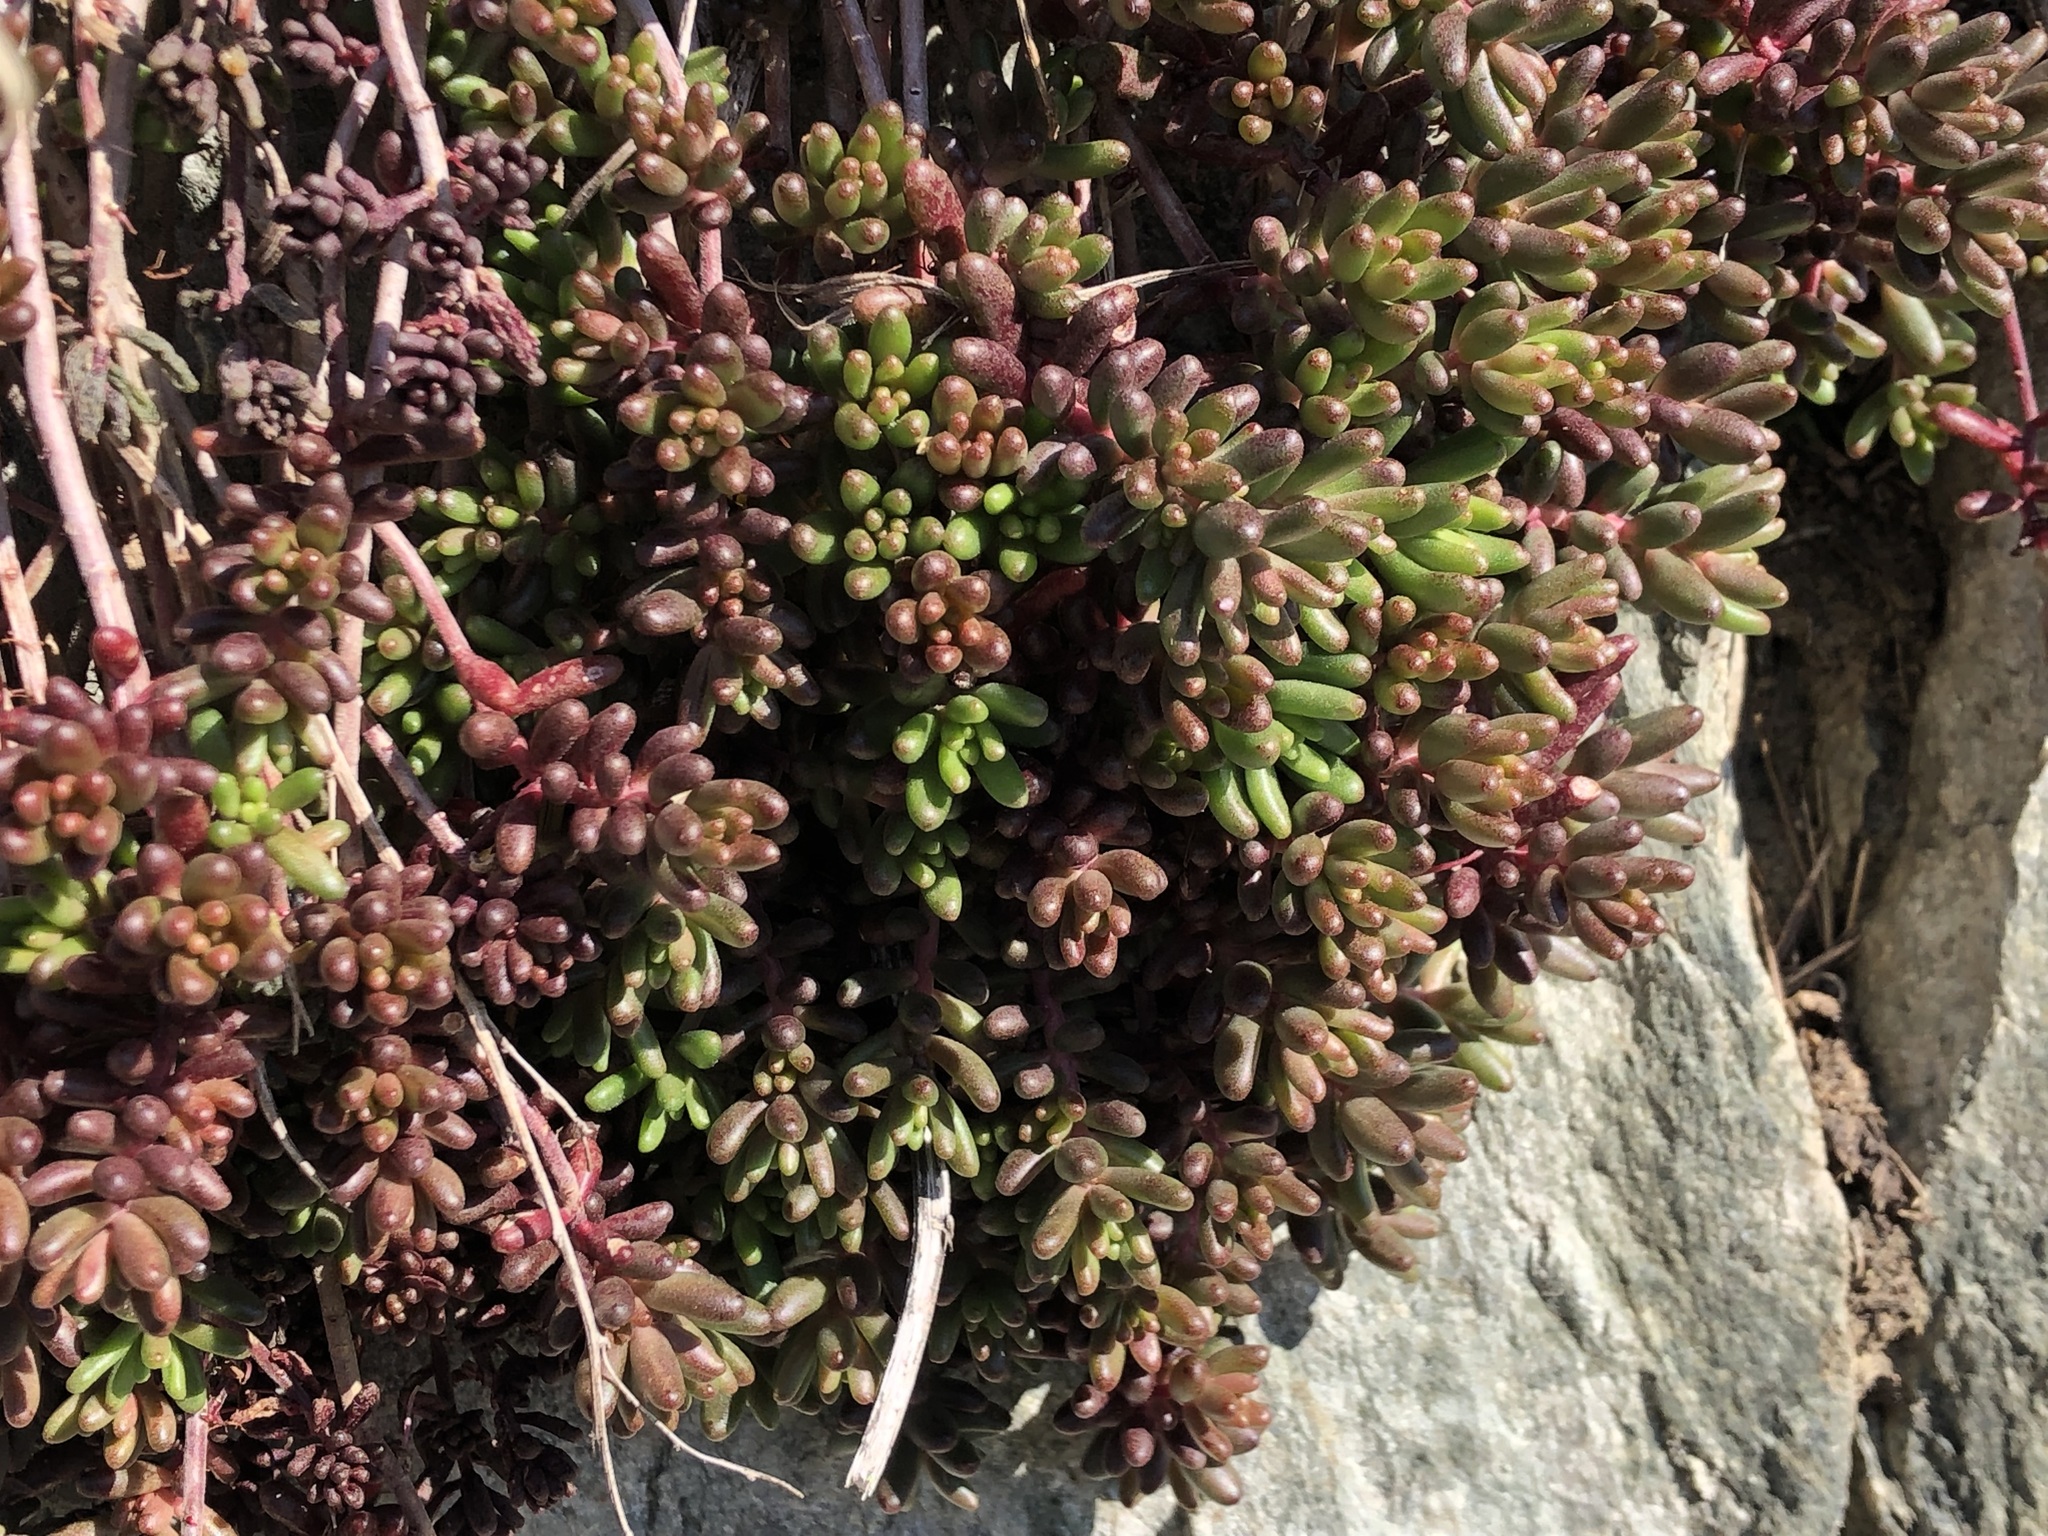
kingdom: Plantae
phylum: Tracheophyta
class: Magnoliopsida
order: Saxifragales
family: Crassulaceae
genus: Sedum
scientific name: Sedum album
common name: White stonecrop
